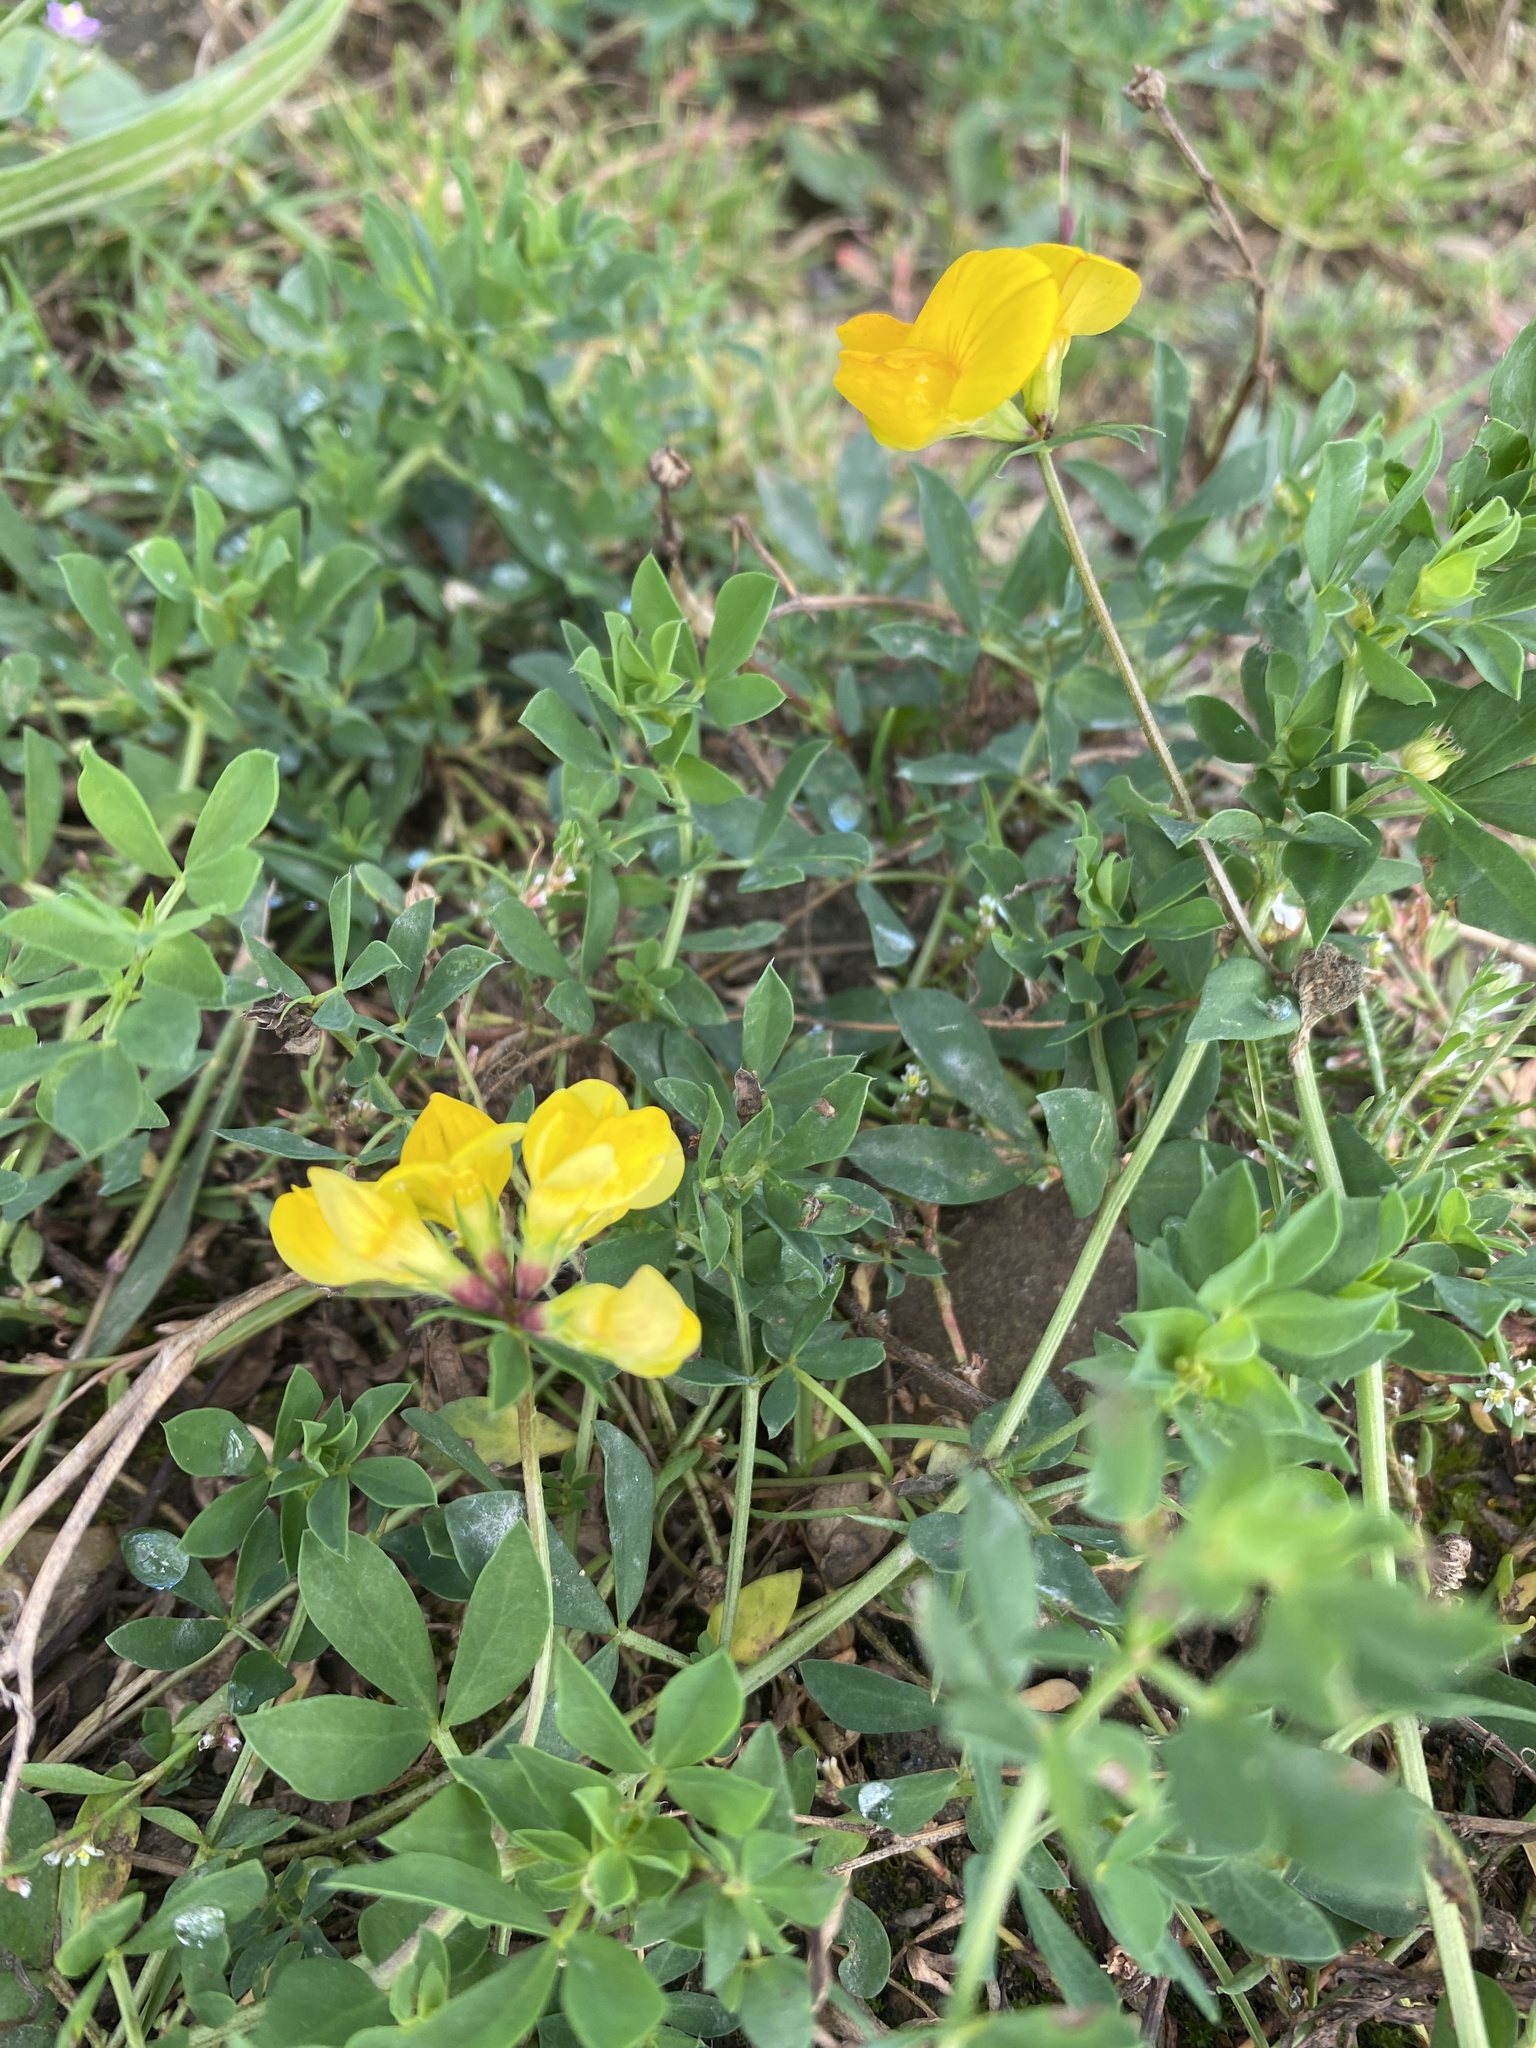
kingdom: Plantae
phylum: Tracheophyta
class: Magnoliopsida
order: Fabales
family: Fabaceae
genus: Lotus
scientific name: Lotus corniculatus
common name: Common bird's-foot-trefoil
